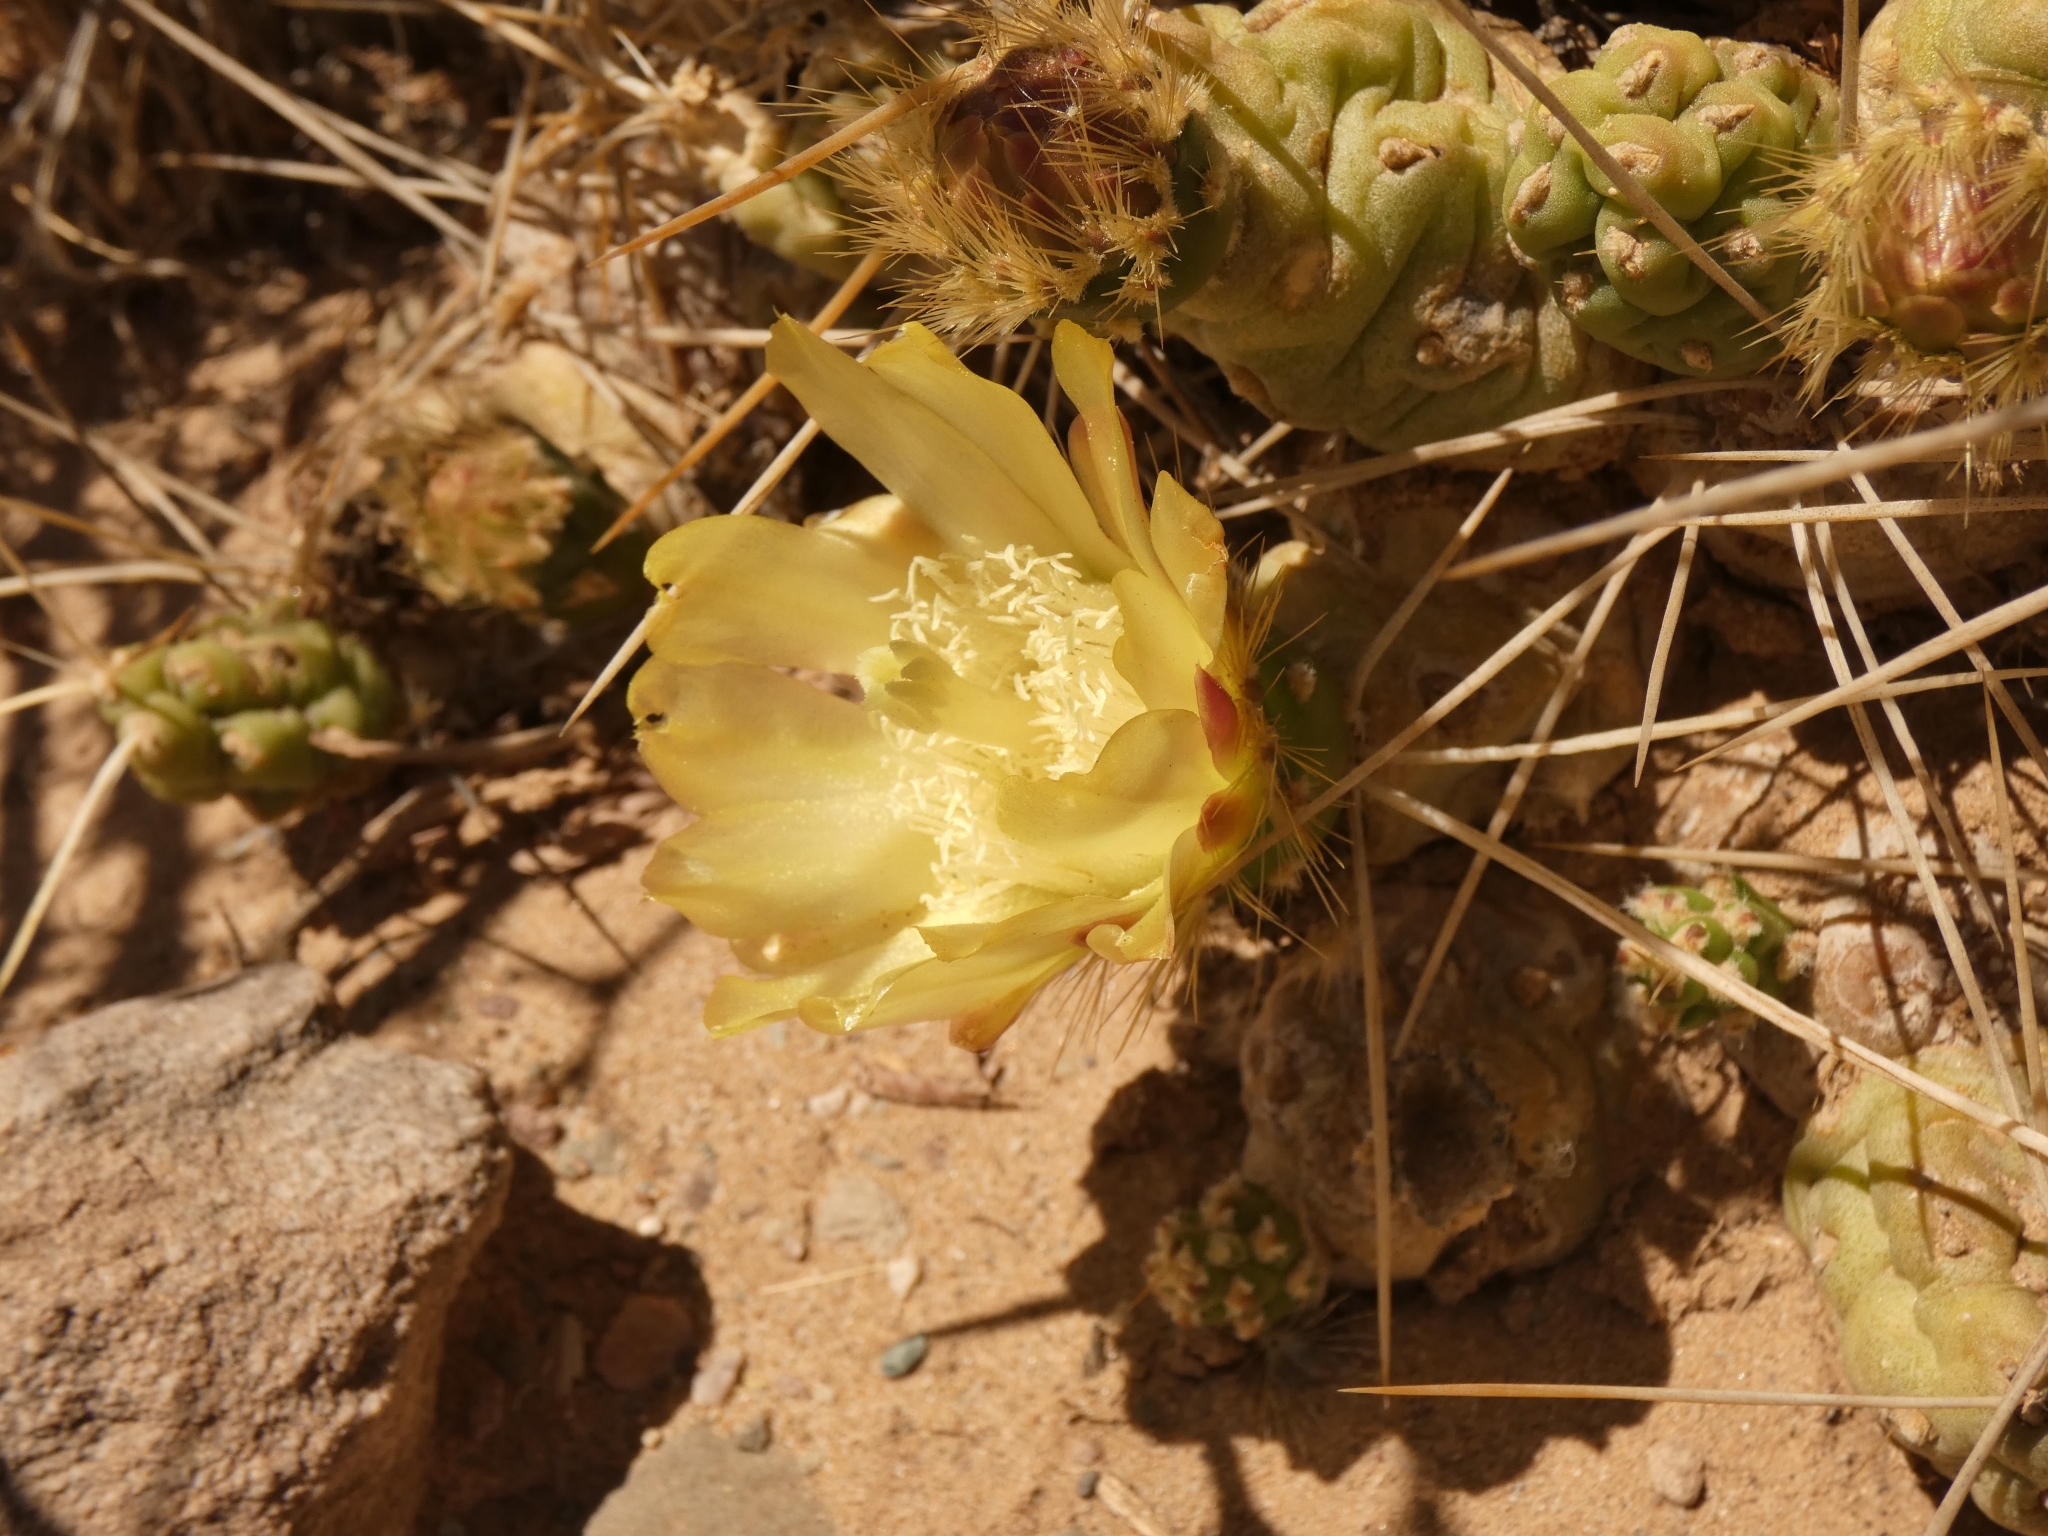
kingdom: Plantae
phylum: Tracheophyta
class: Magnoliopsida
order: Caryophyllales
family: Cactaceae
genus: Cumulopuntia
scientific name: Cumulopuntia boliviana
